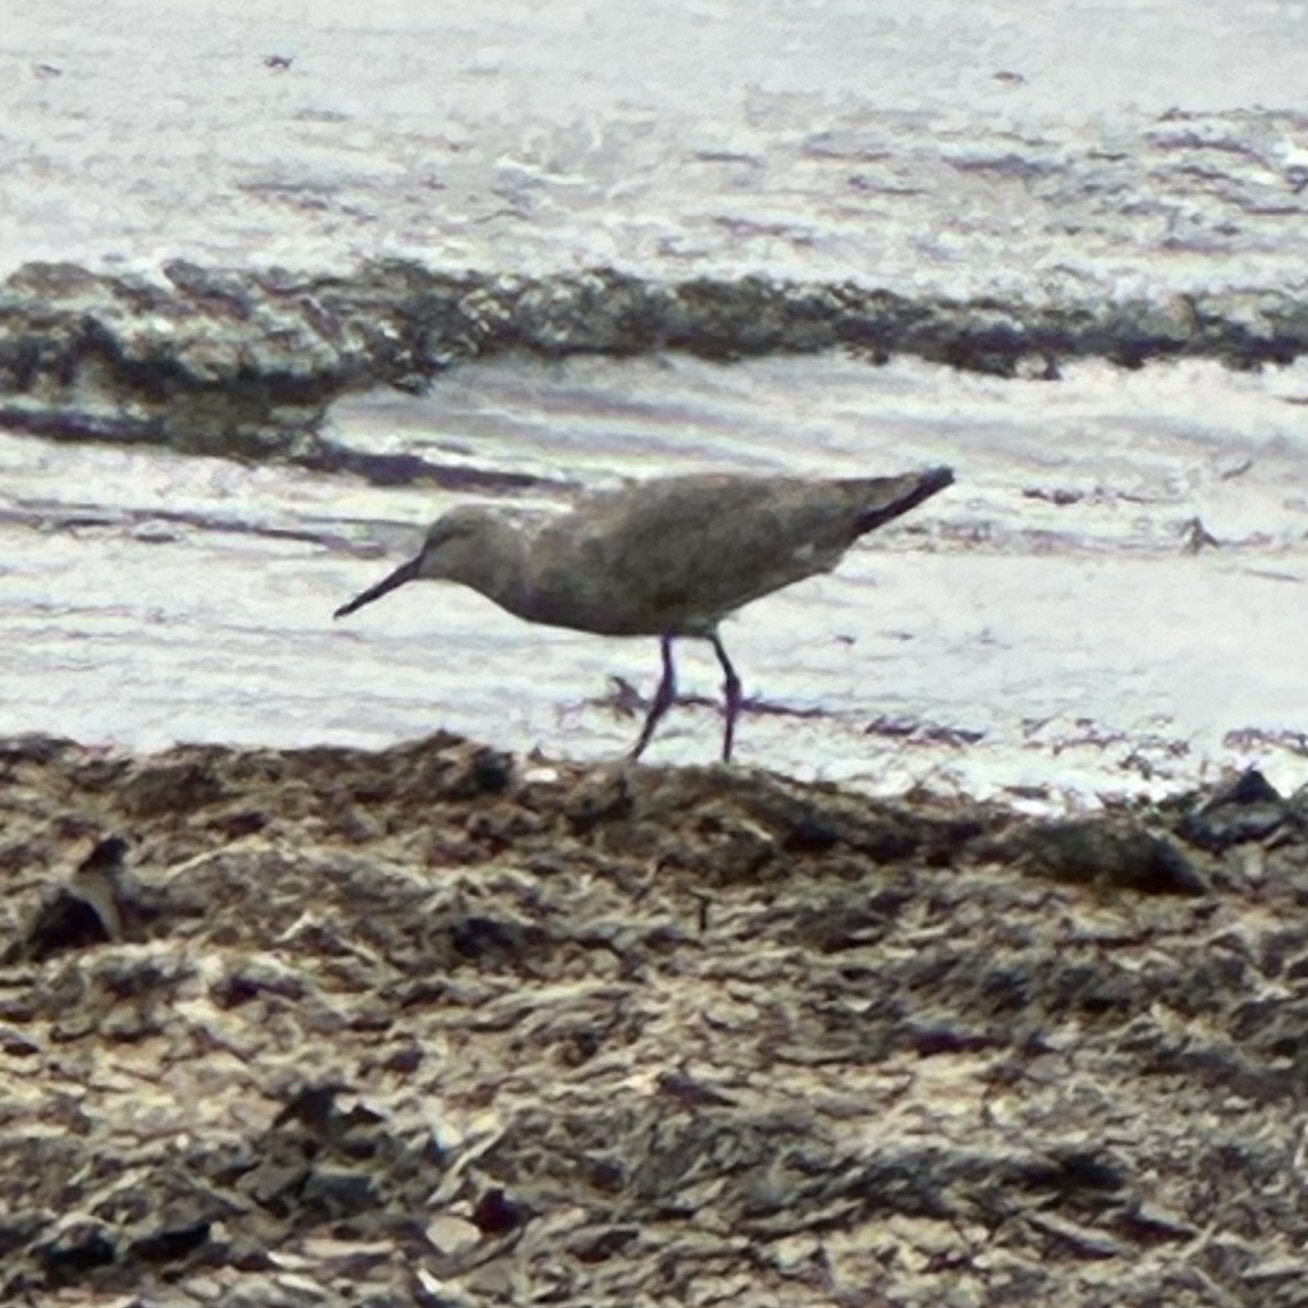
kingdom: Animalia
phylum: Chordata
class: Aves
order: Charadriiformes
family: Scolopacidae
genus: Tringa
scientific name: Tringa semipalmata
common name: Willet
